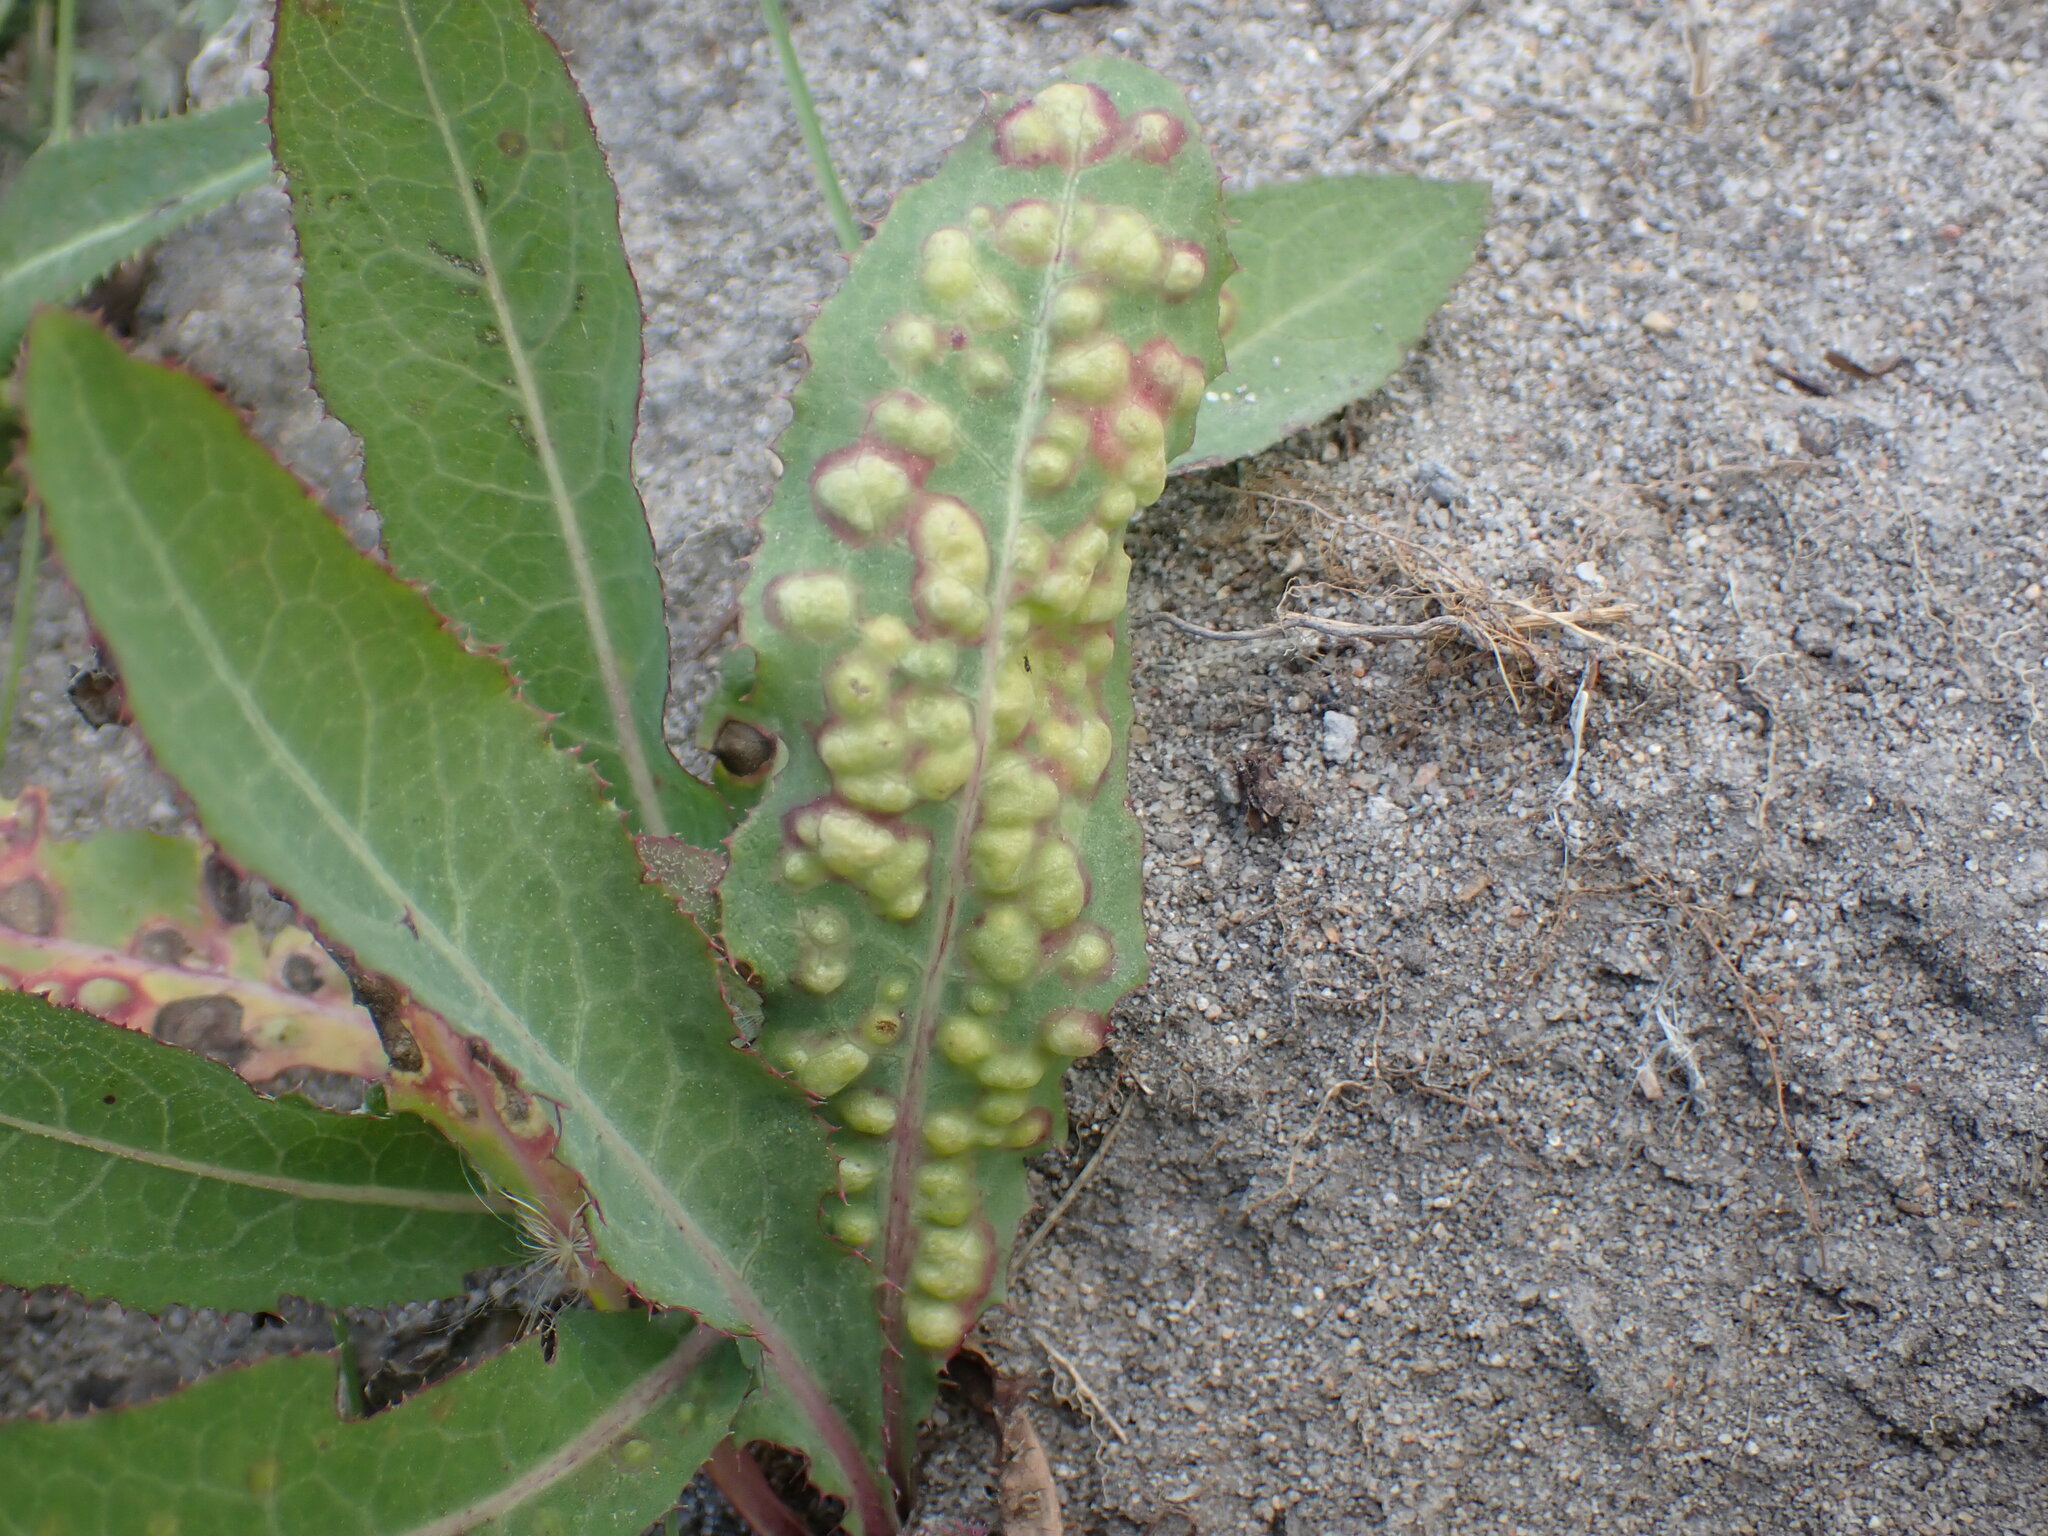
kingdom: Animalia
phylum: Arthropoda
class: Insecta
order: Diptera
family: Cecidomyiidae
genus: Cystiphora
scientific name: Cystiphora sonchi
